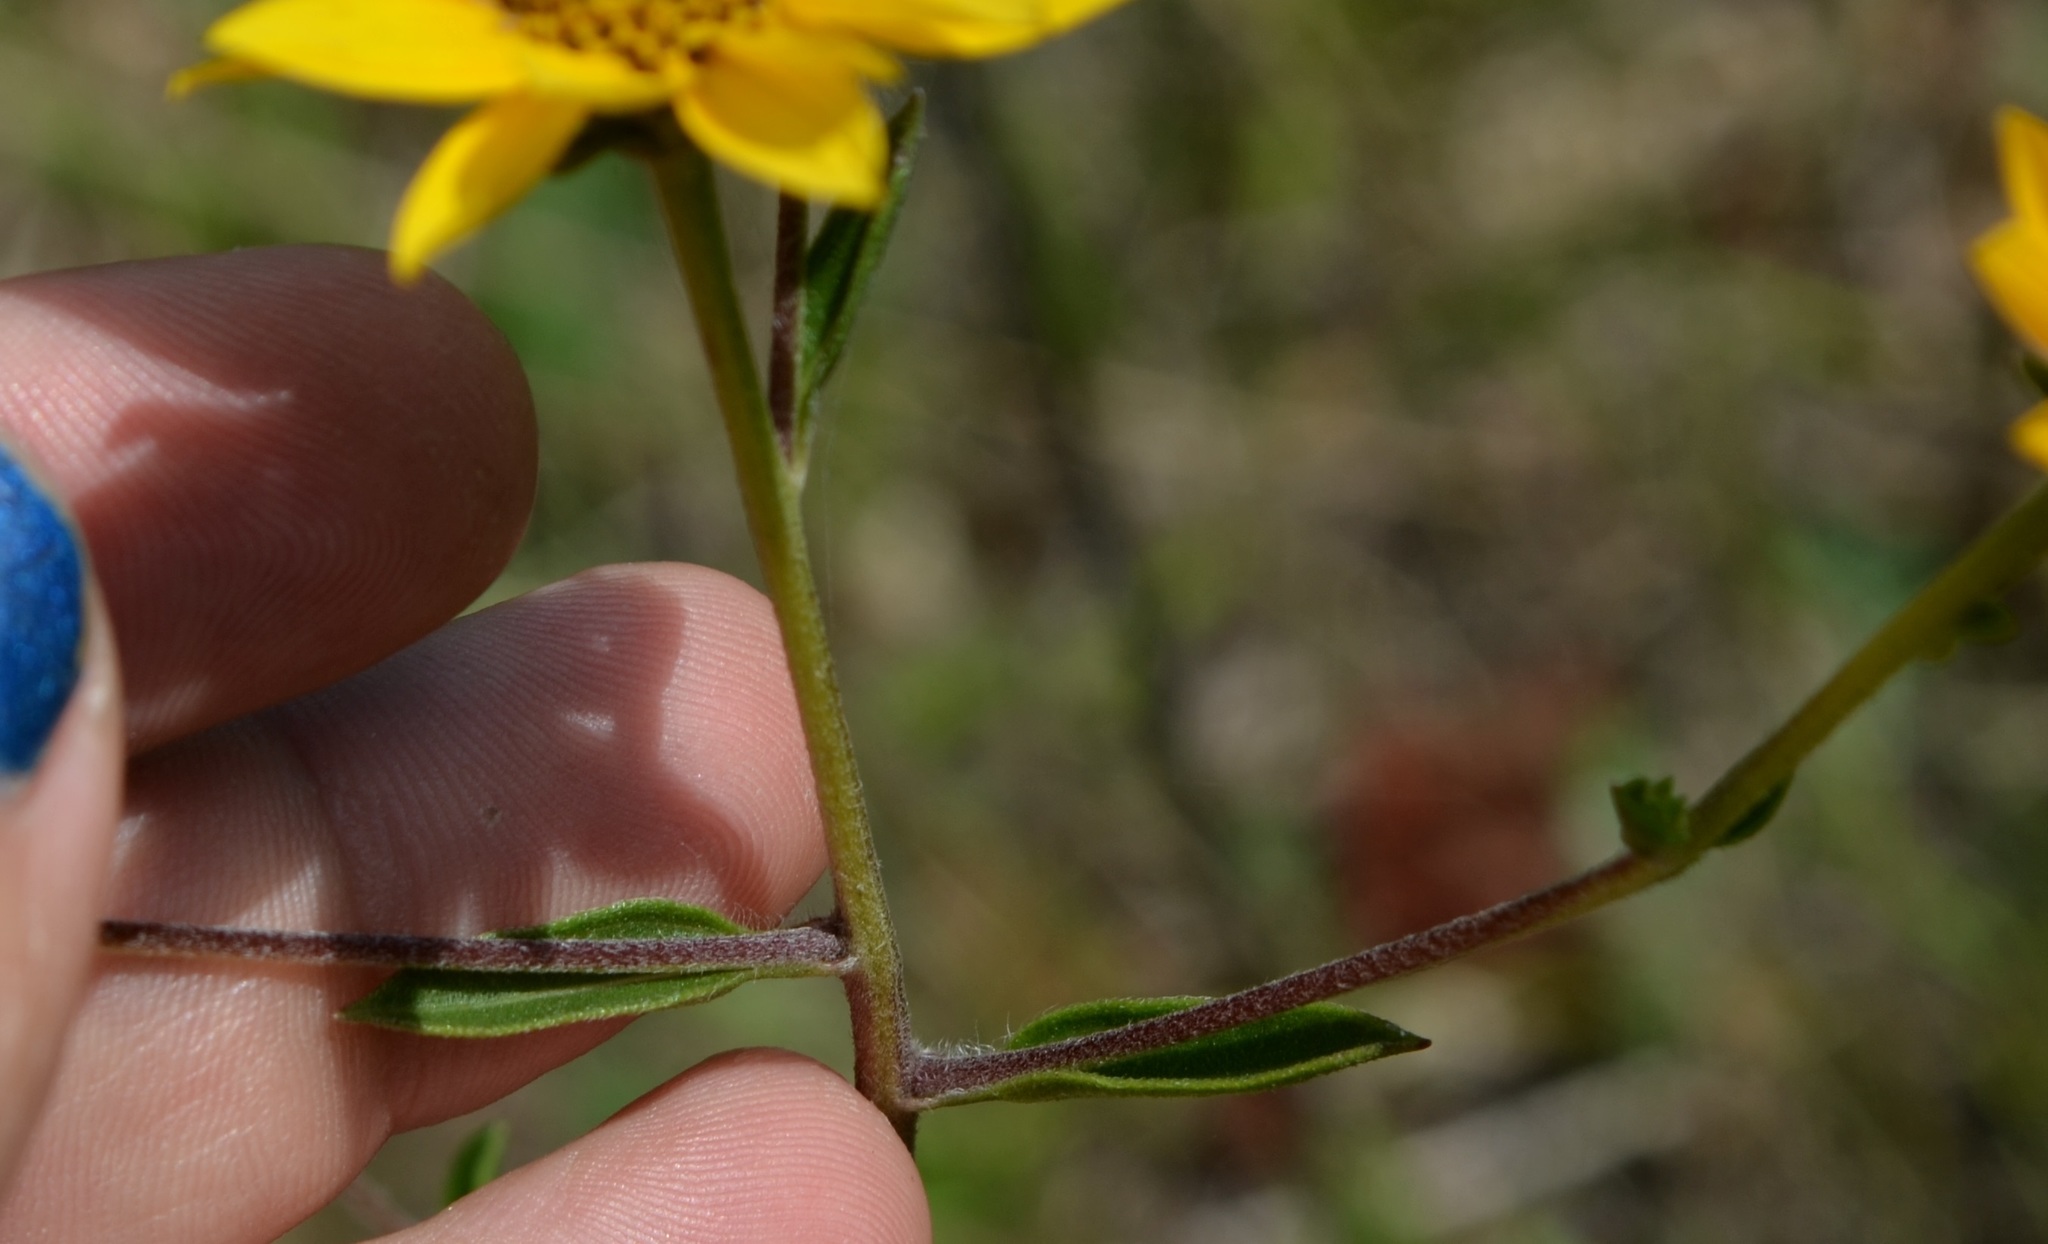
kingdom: Plantae
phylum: Tracheophyta
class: Magnoliopsida
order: Asterales
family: Asteraceae
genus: Helianthus
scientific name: Helianthus occidentalis
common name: Western sunflower
